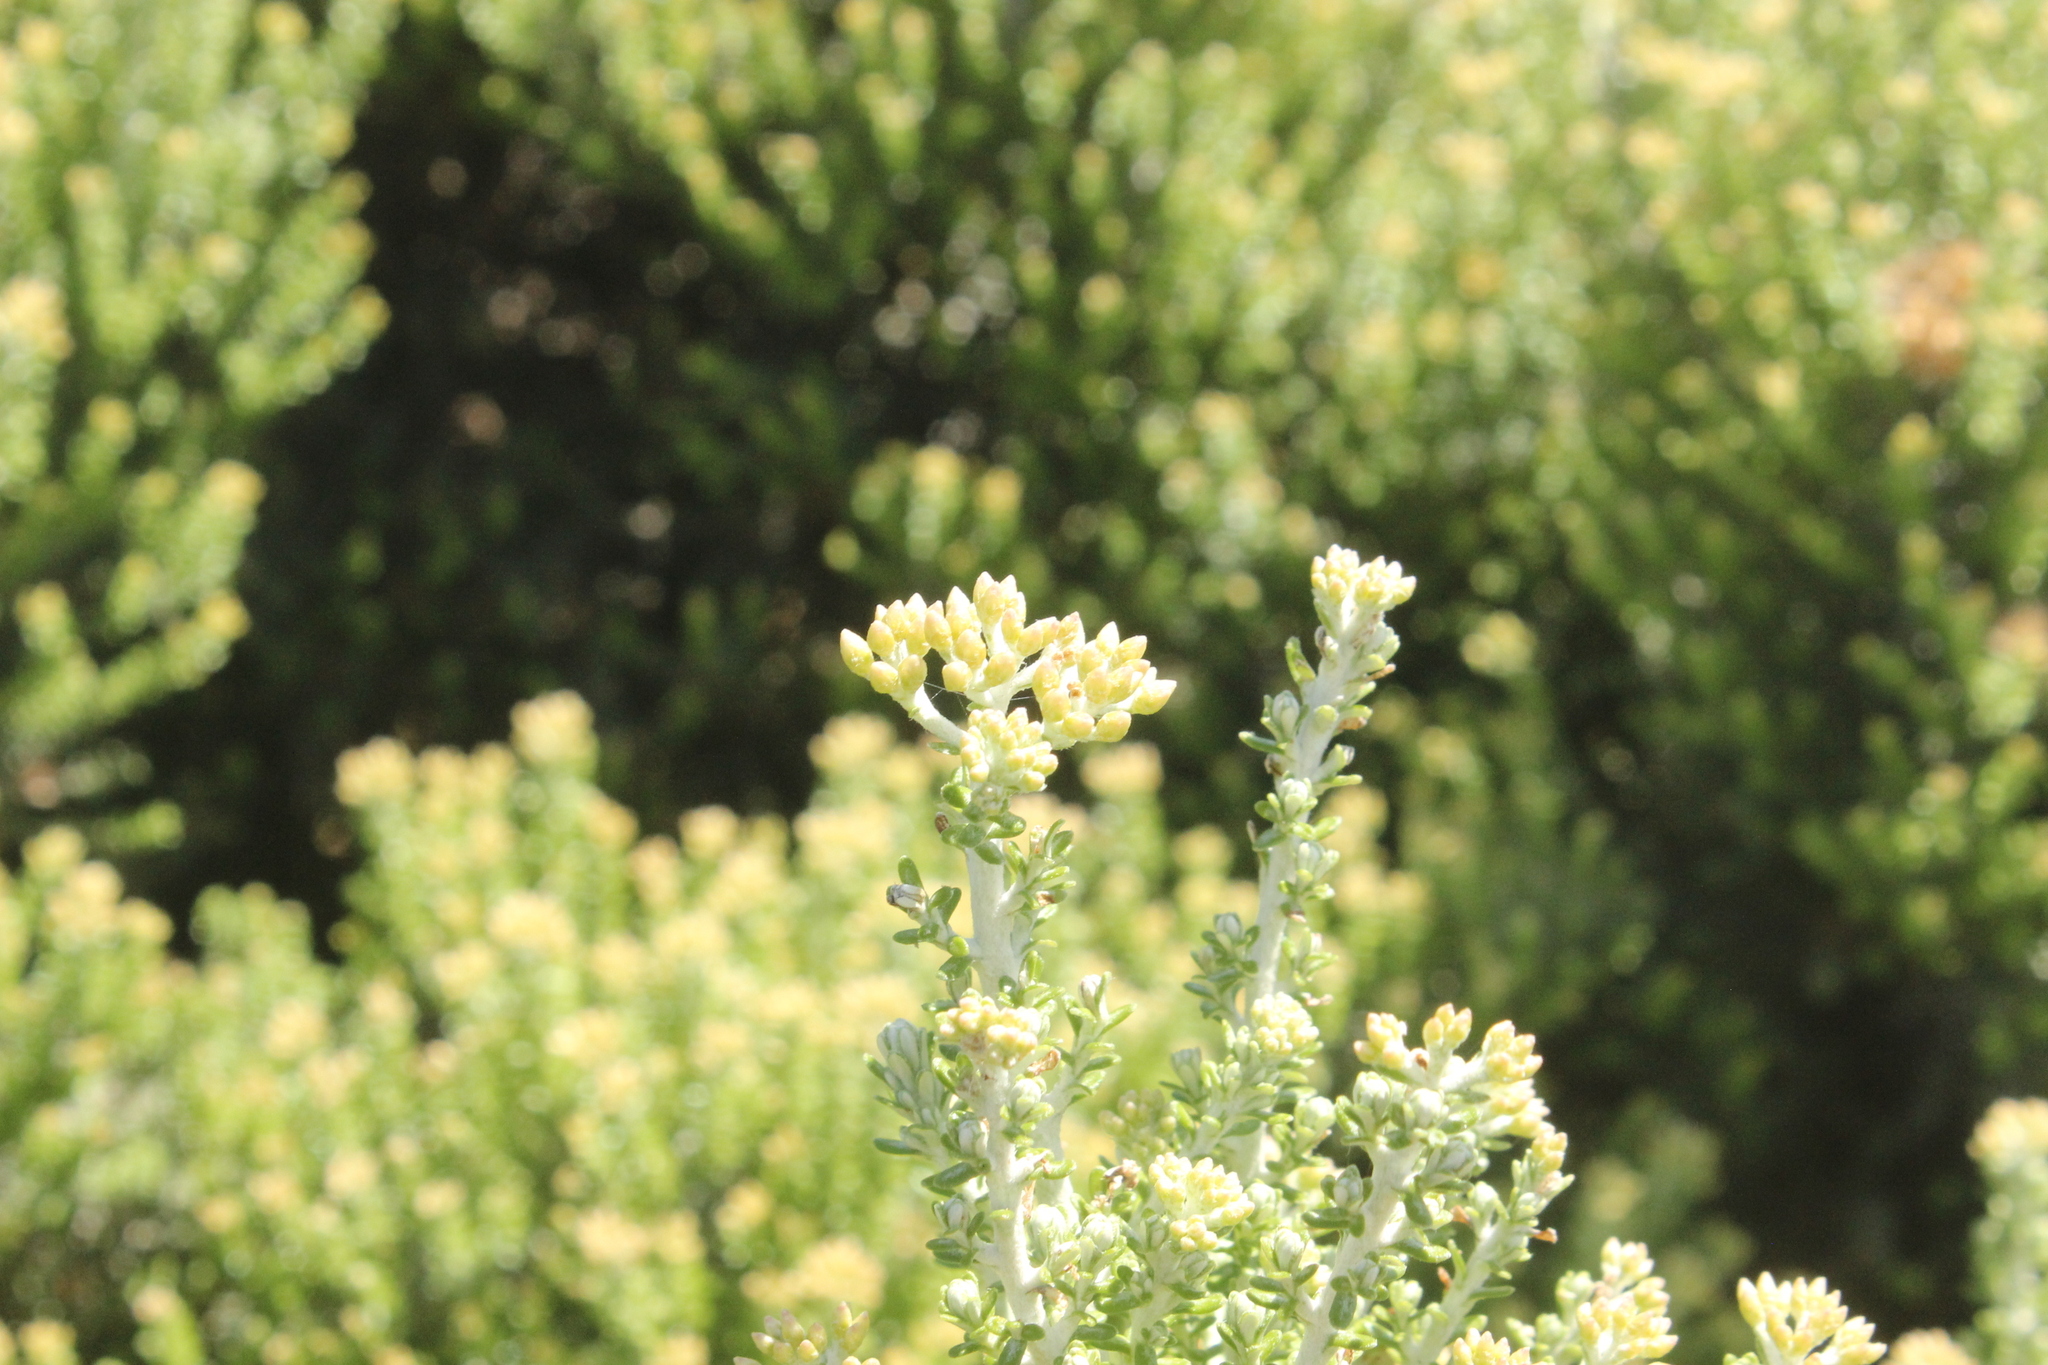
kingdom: Plantae
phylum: Tracheophyta
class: Magnoliopsida
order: Asterales
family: Asteraceae
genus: Ozothamnus
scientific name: Ozothamnus leptophyllus
